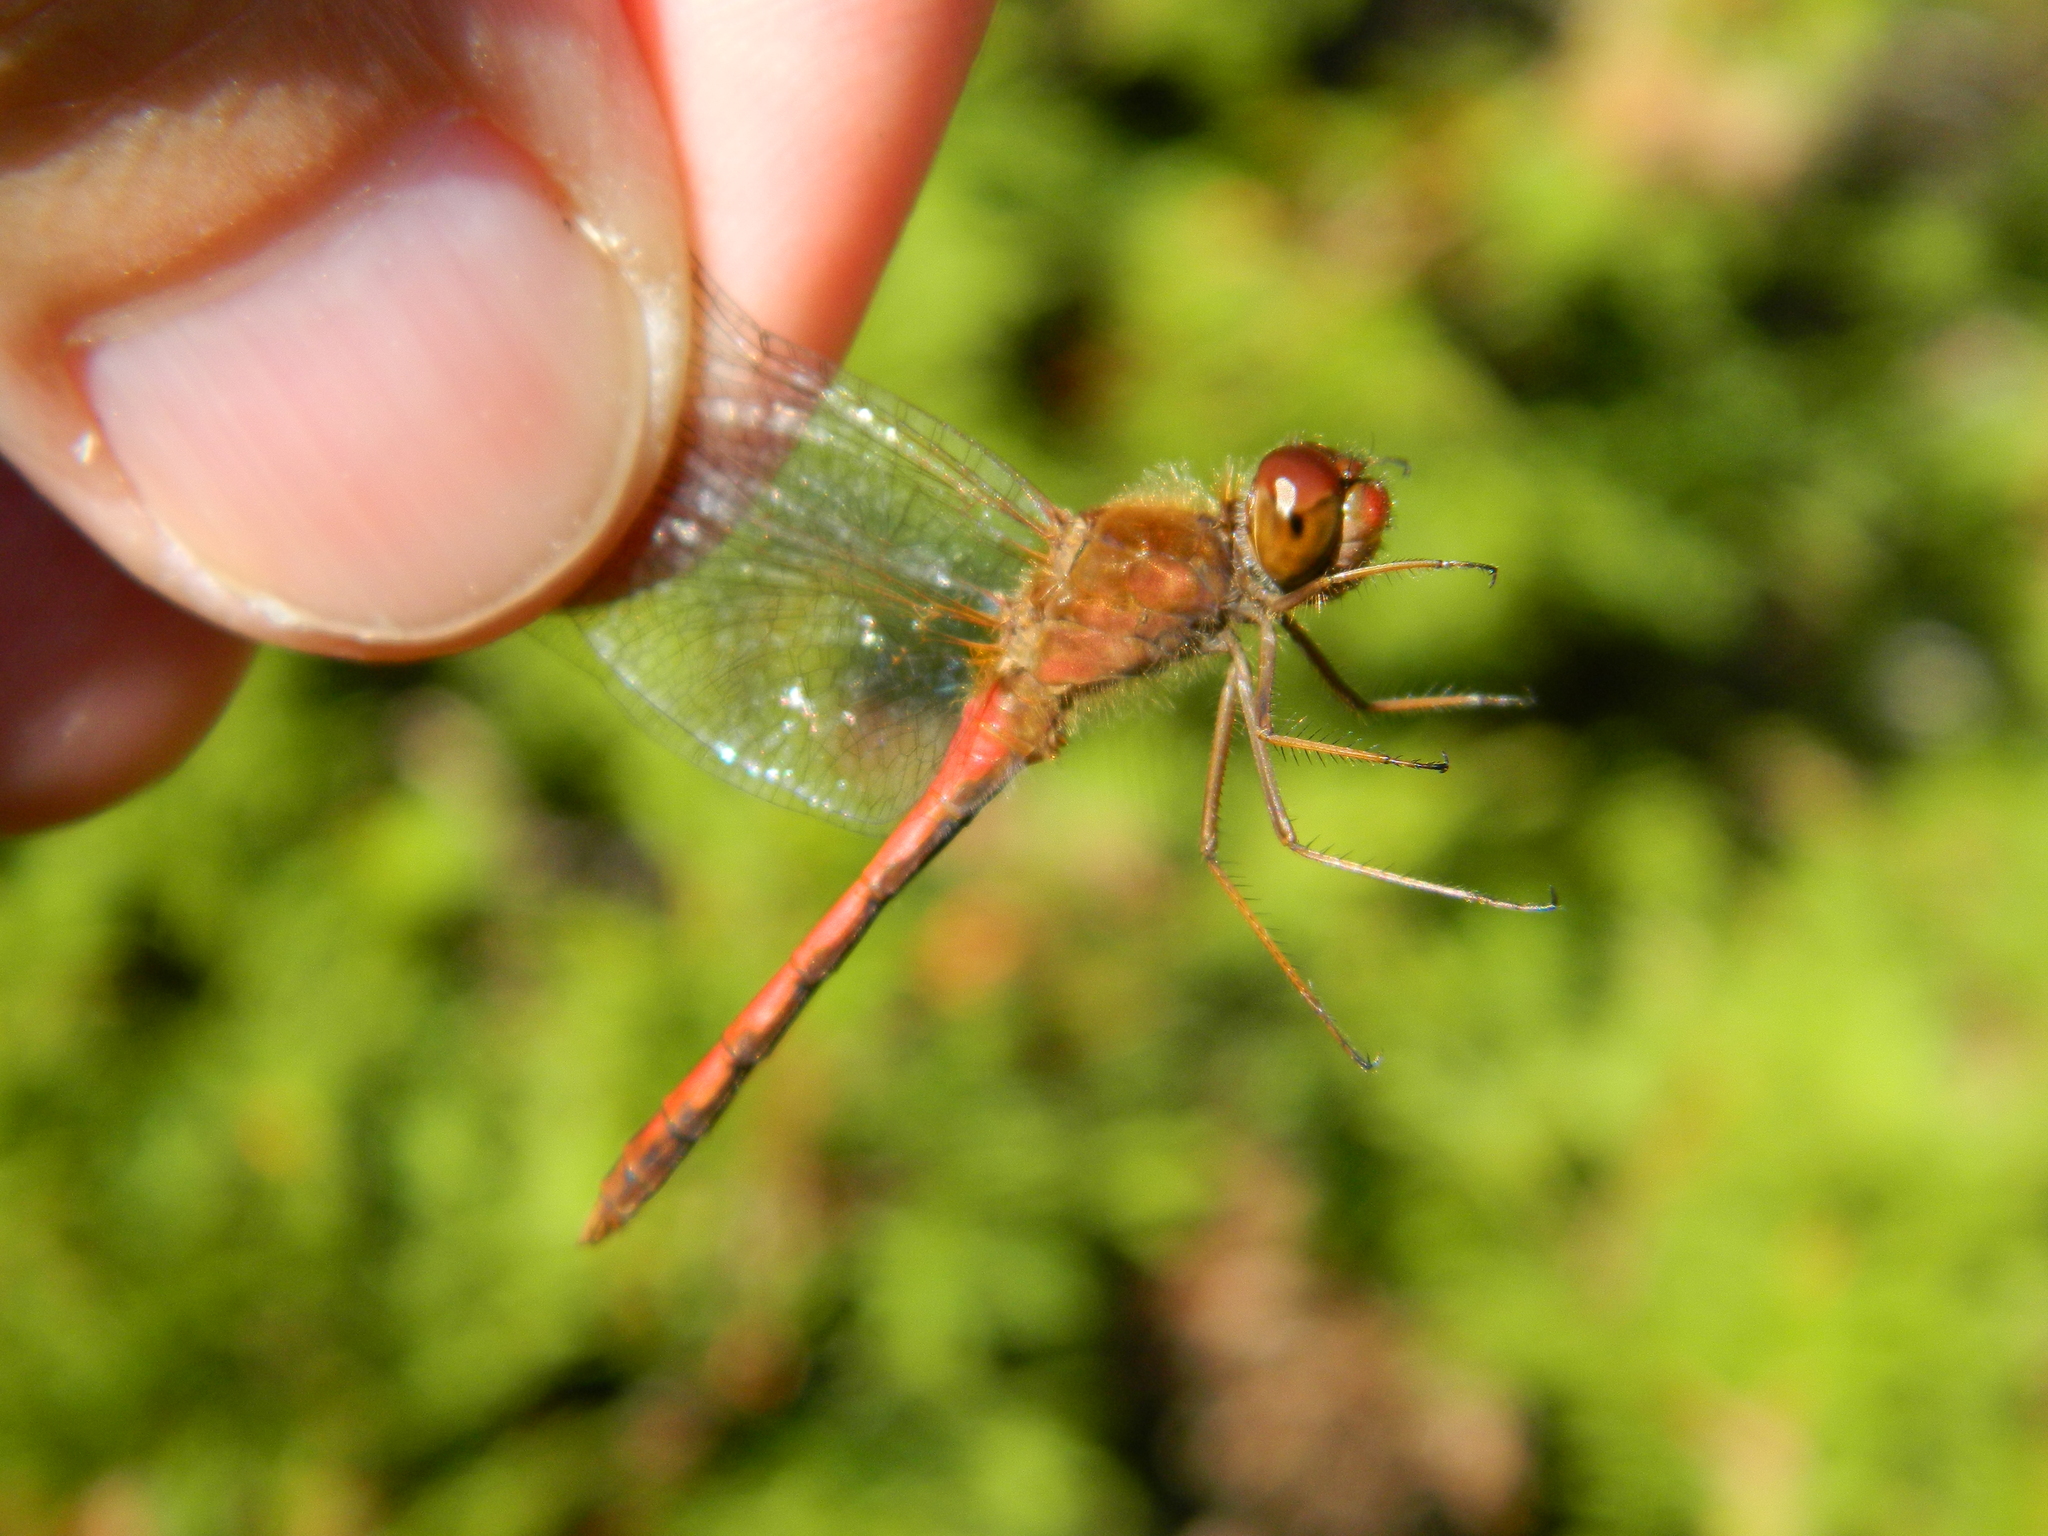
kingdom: Animalia
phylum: Arthropoda
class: Insecta
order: Odonata
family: Libellulidae
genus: Sympetrum
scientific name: Sympetrum vicinum
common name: Autumn meadowhawk
